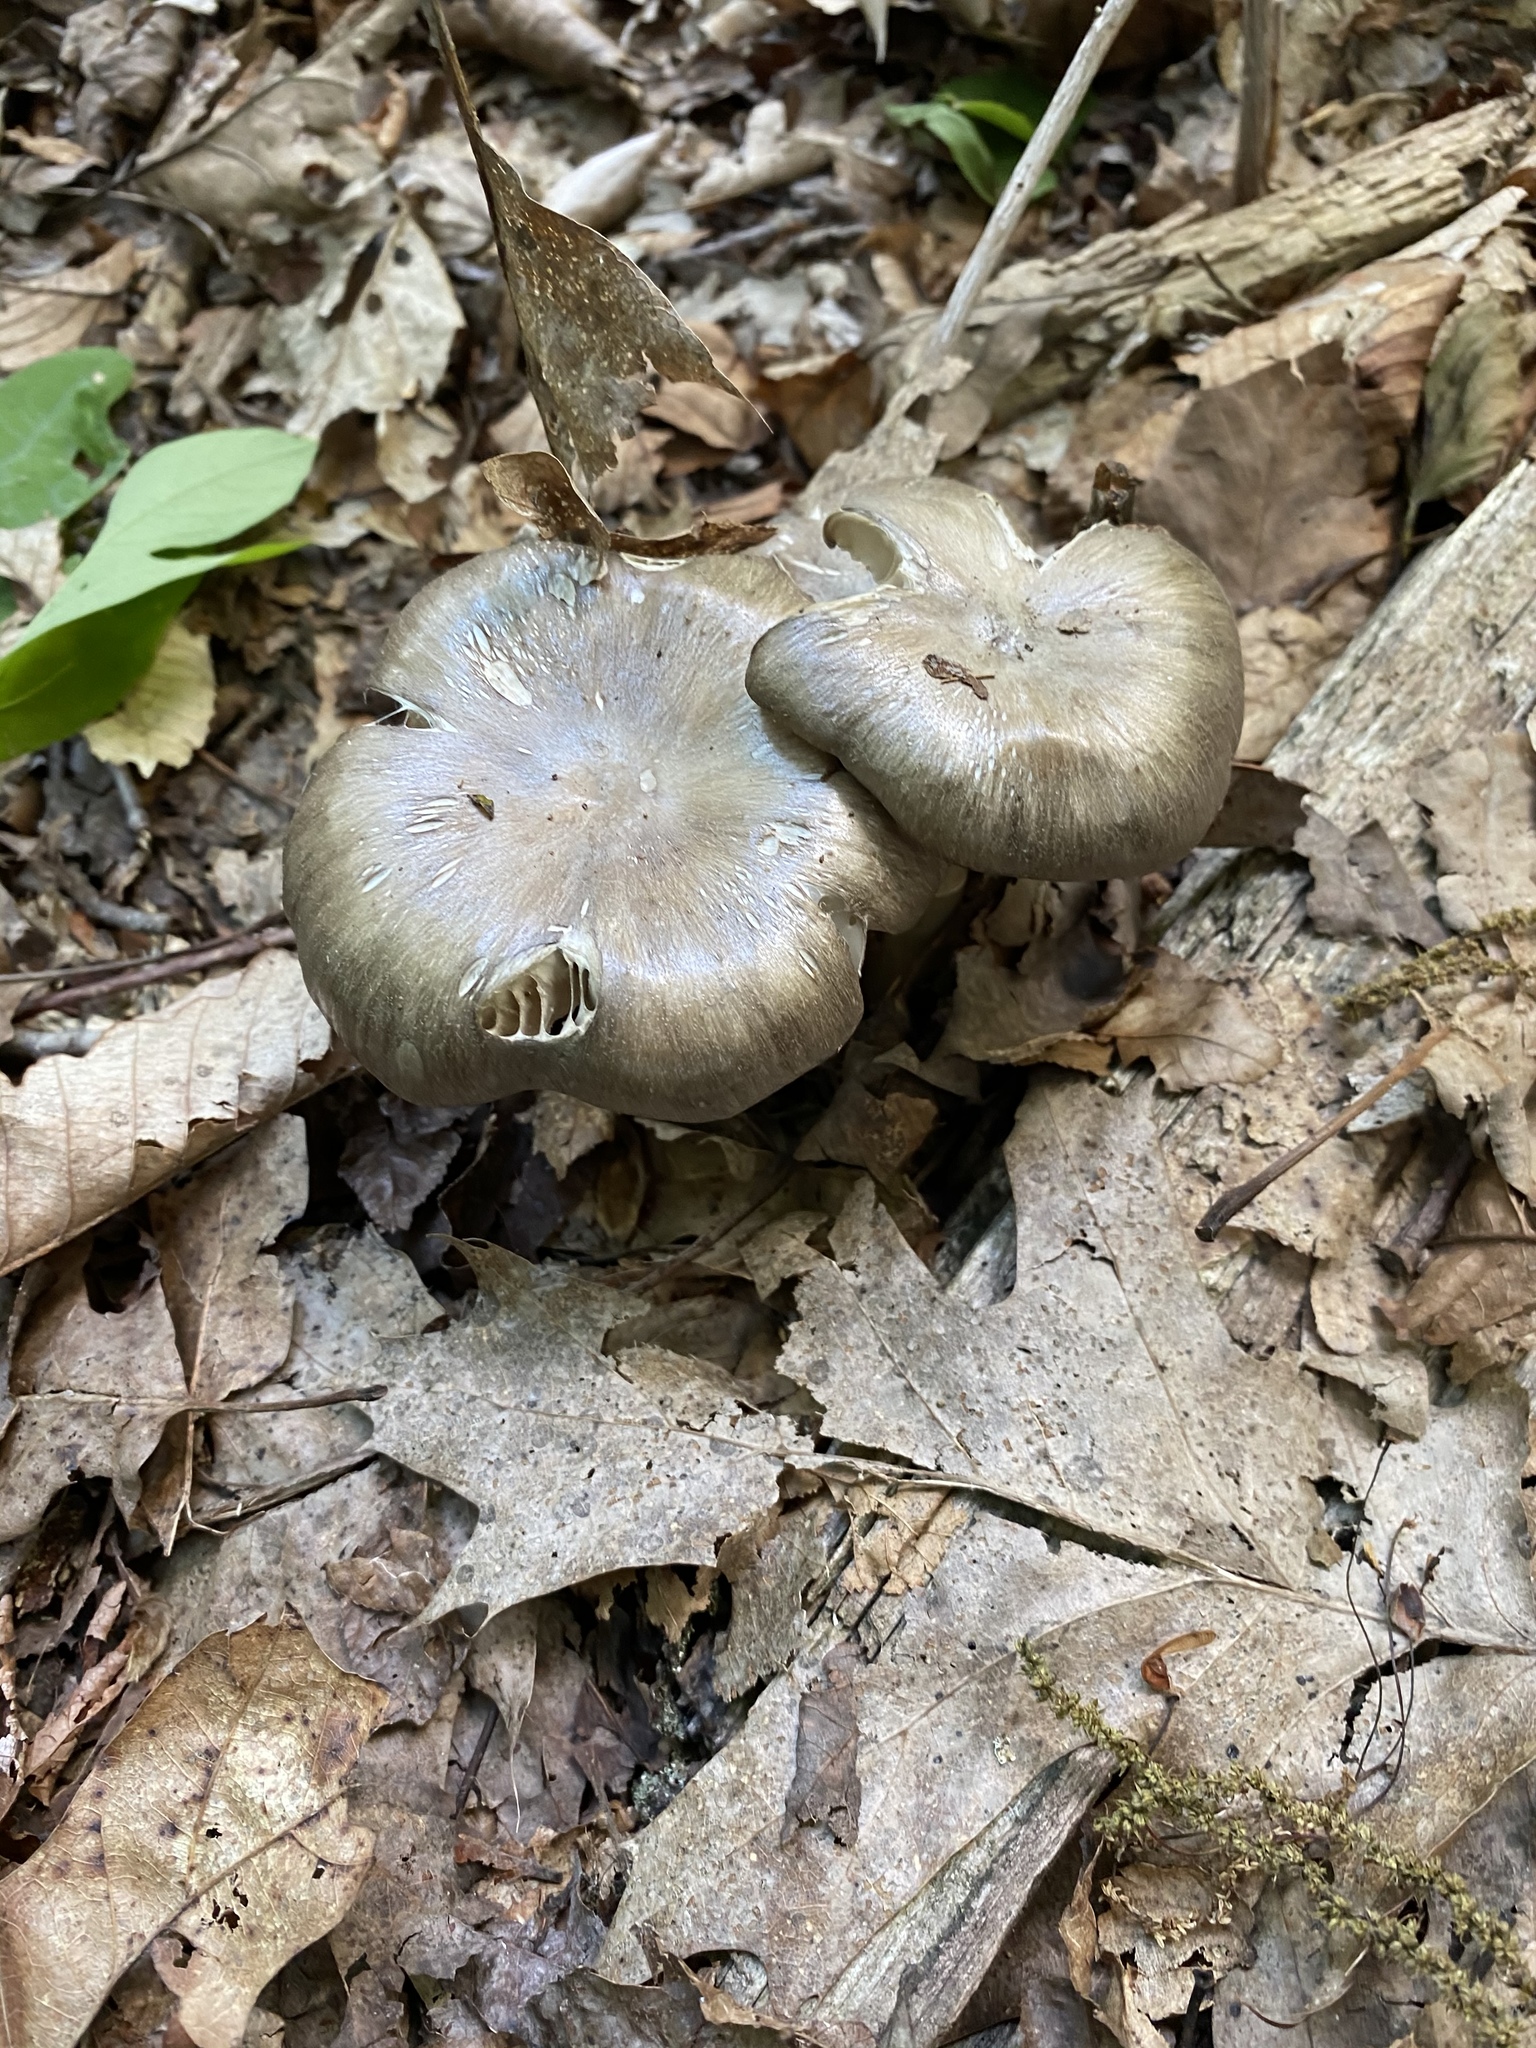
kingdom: Fungi
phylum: Basidiomycota
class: Agaricomycetes
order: Agaricales
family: Tricholomataceae
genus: Megacollybia
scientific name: Megacollybia rodmanii
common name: Eastern american platterful mushroom
